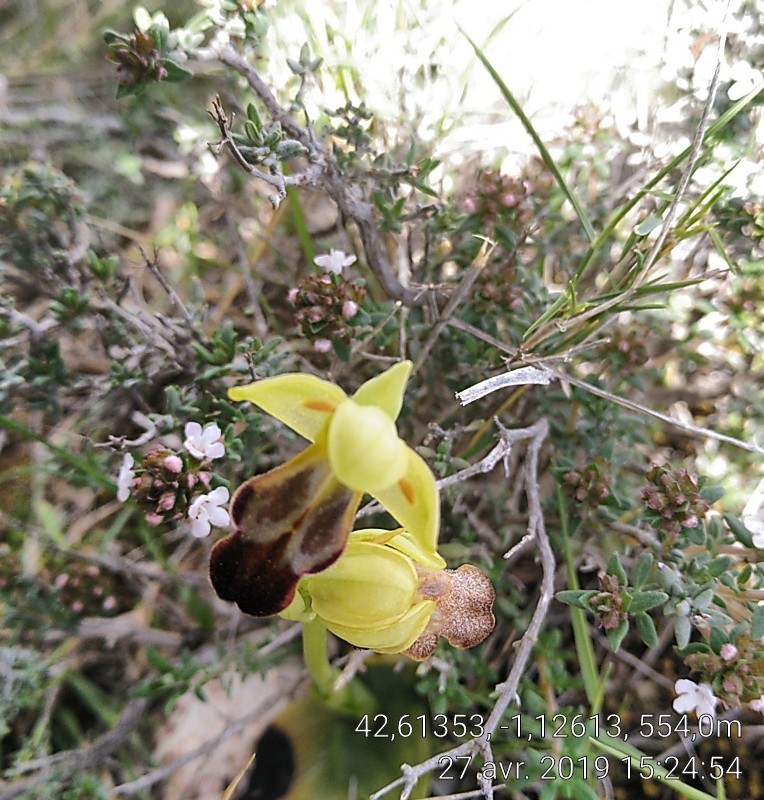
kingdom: Plantae
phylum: Tracheophyta
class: Liliopsida
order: Asparagales
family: Orchidaceae
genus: Ophrys
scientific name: Ophrys fusca
